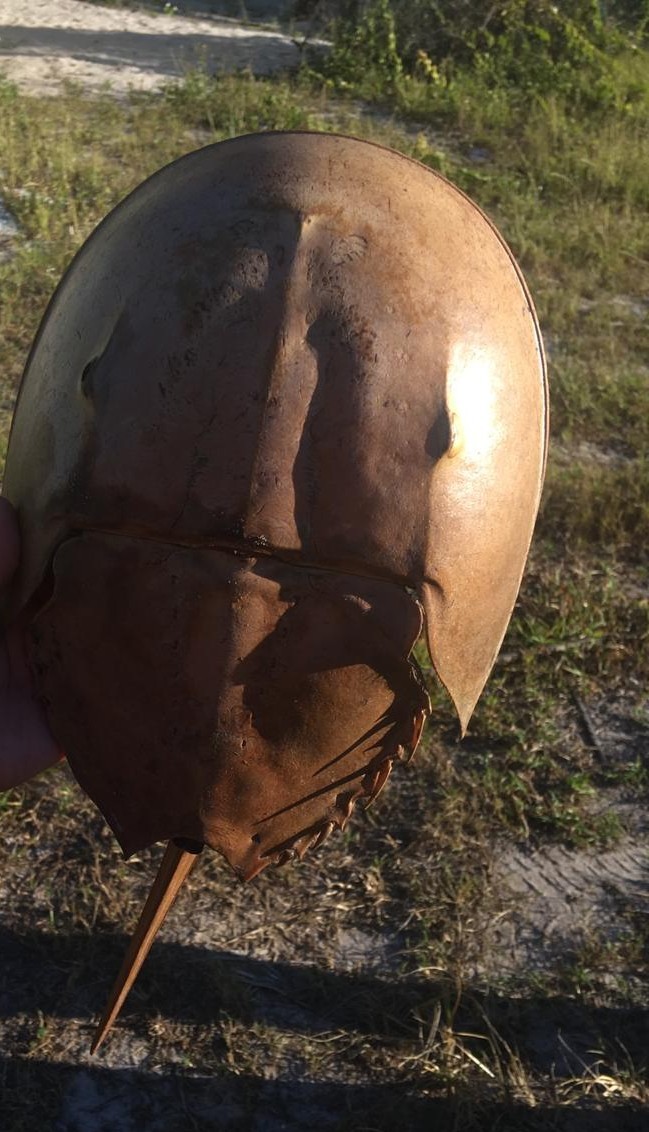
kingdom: Animalia
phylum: Arthropoda
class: Merostomata
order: Xiphosurida
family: Limulidae
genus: Limulus
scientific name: Limulus polyphemus
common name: Horseshoe crab
